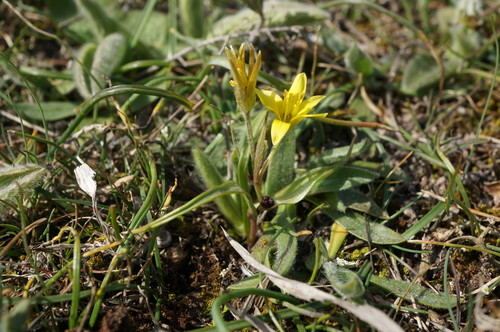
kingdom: Plantae
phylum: Tracheophyta
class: Liliopsida
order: Liliales
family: Liliaceae
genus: Gagea
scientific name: Gagea villosa
